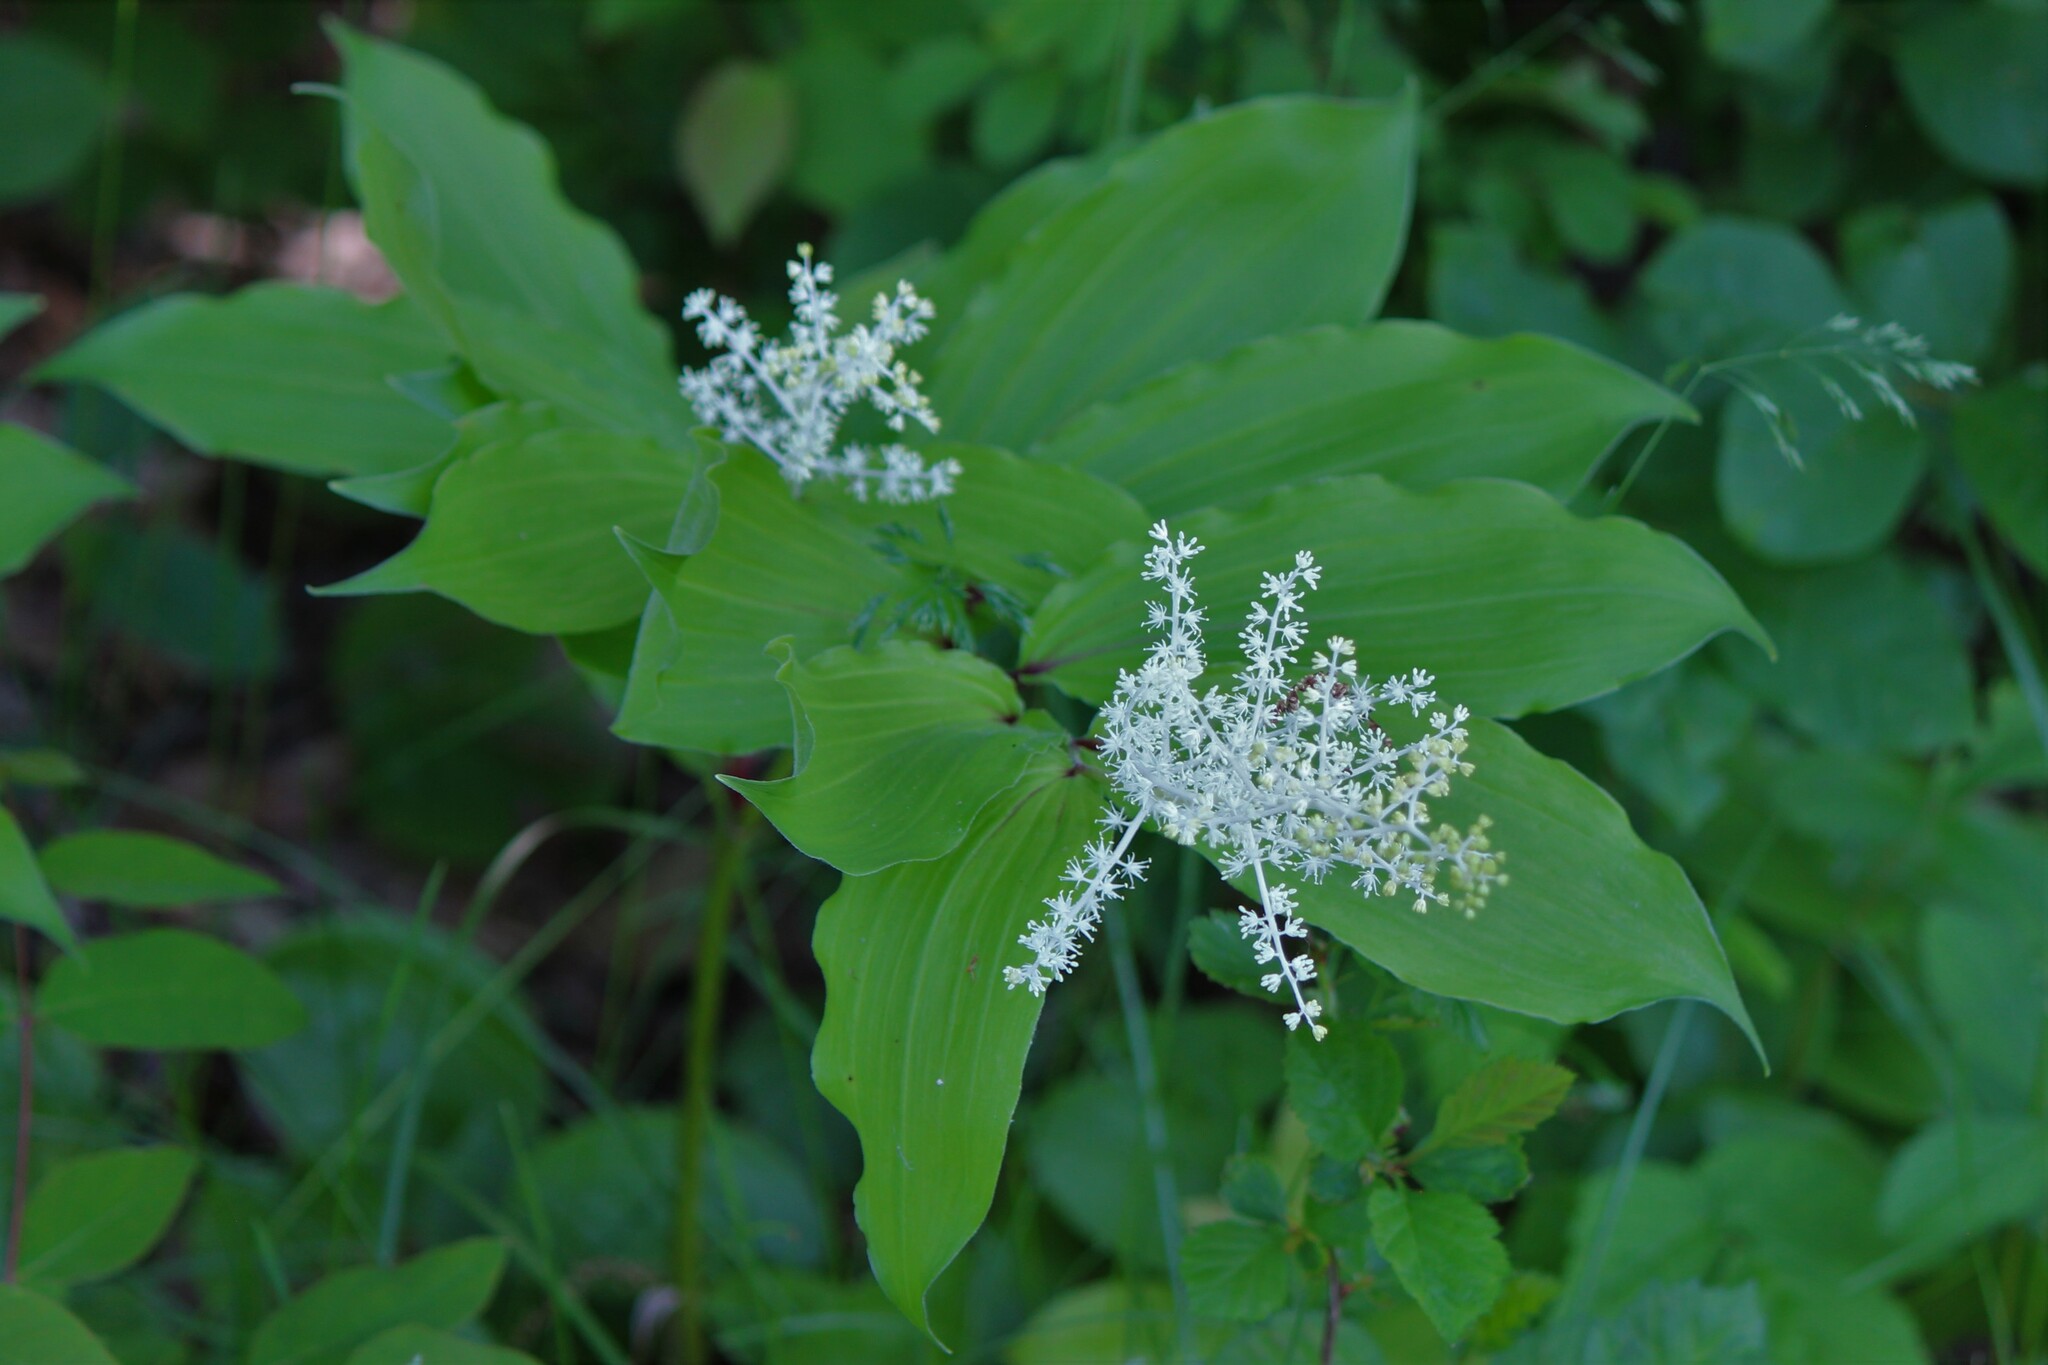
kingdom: Plantae
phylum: Tracheophyta
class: Liliopsida
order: Asparagales
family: Asparagaceae
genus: Maianthemum
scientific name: Maianthemum racemosum
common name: False spikenard
